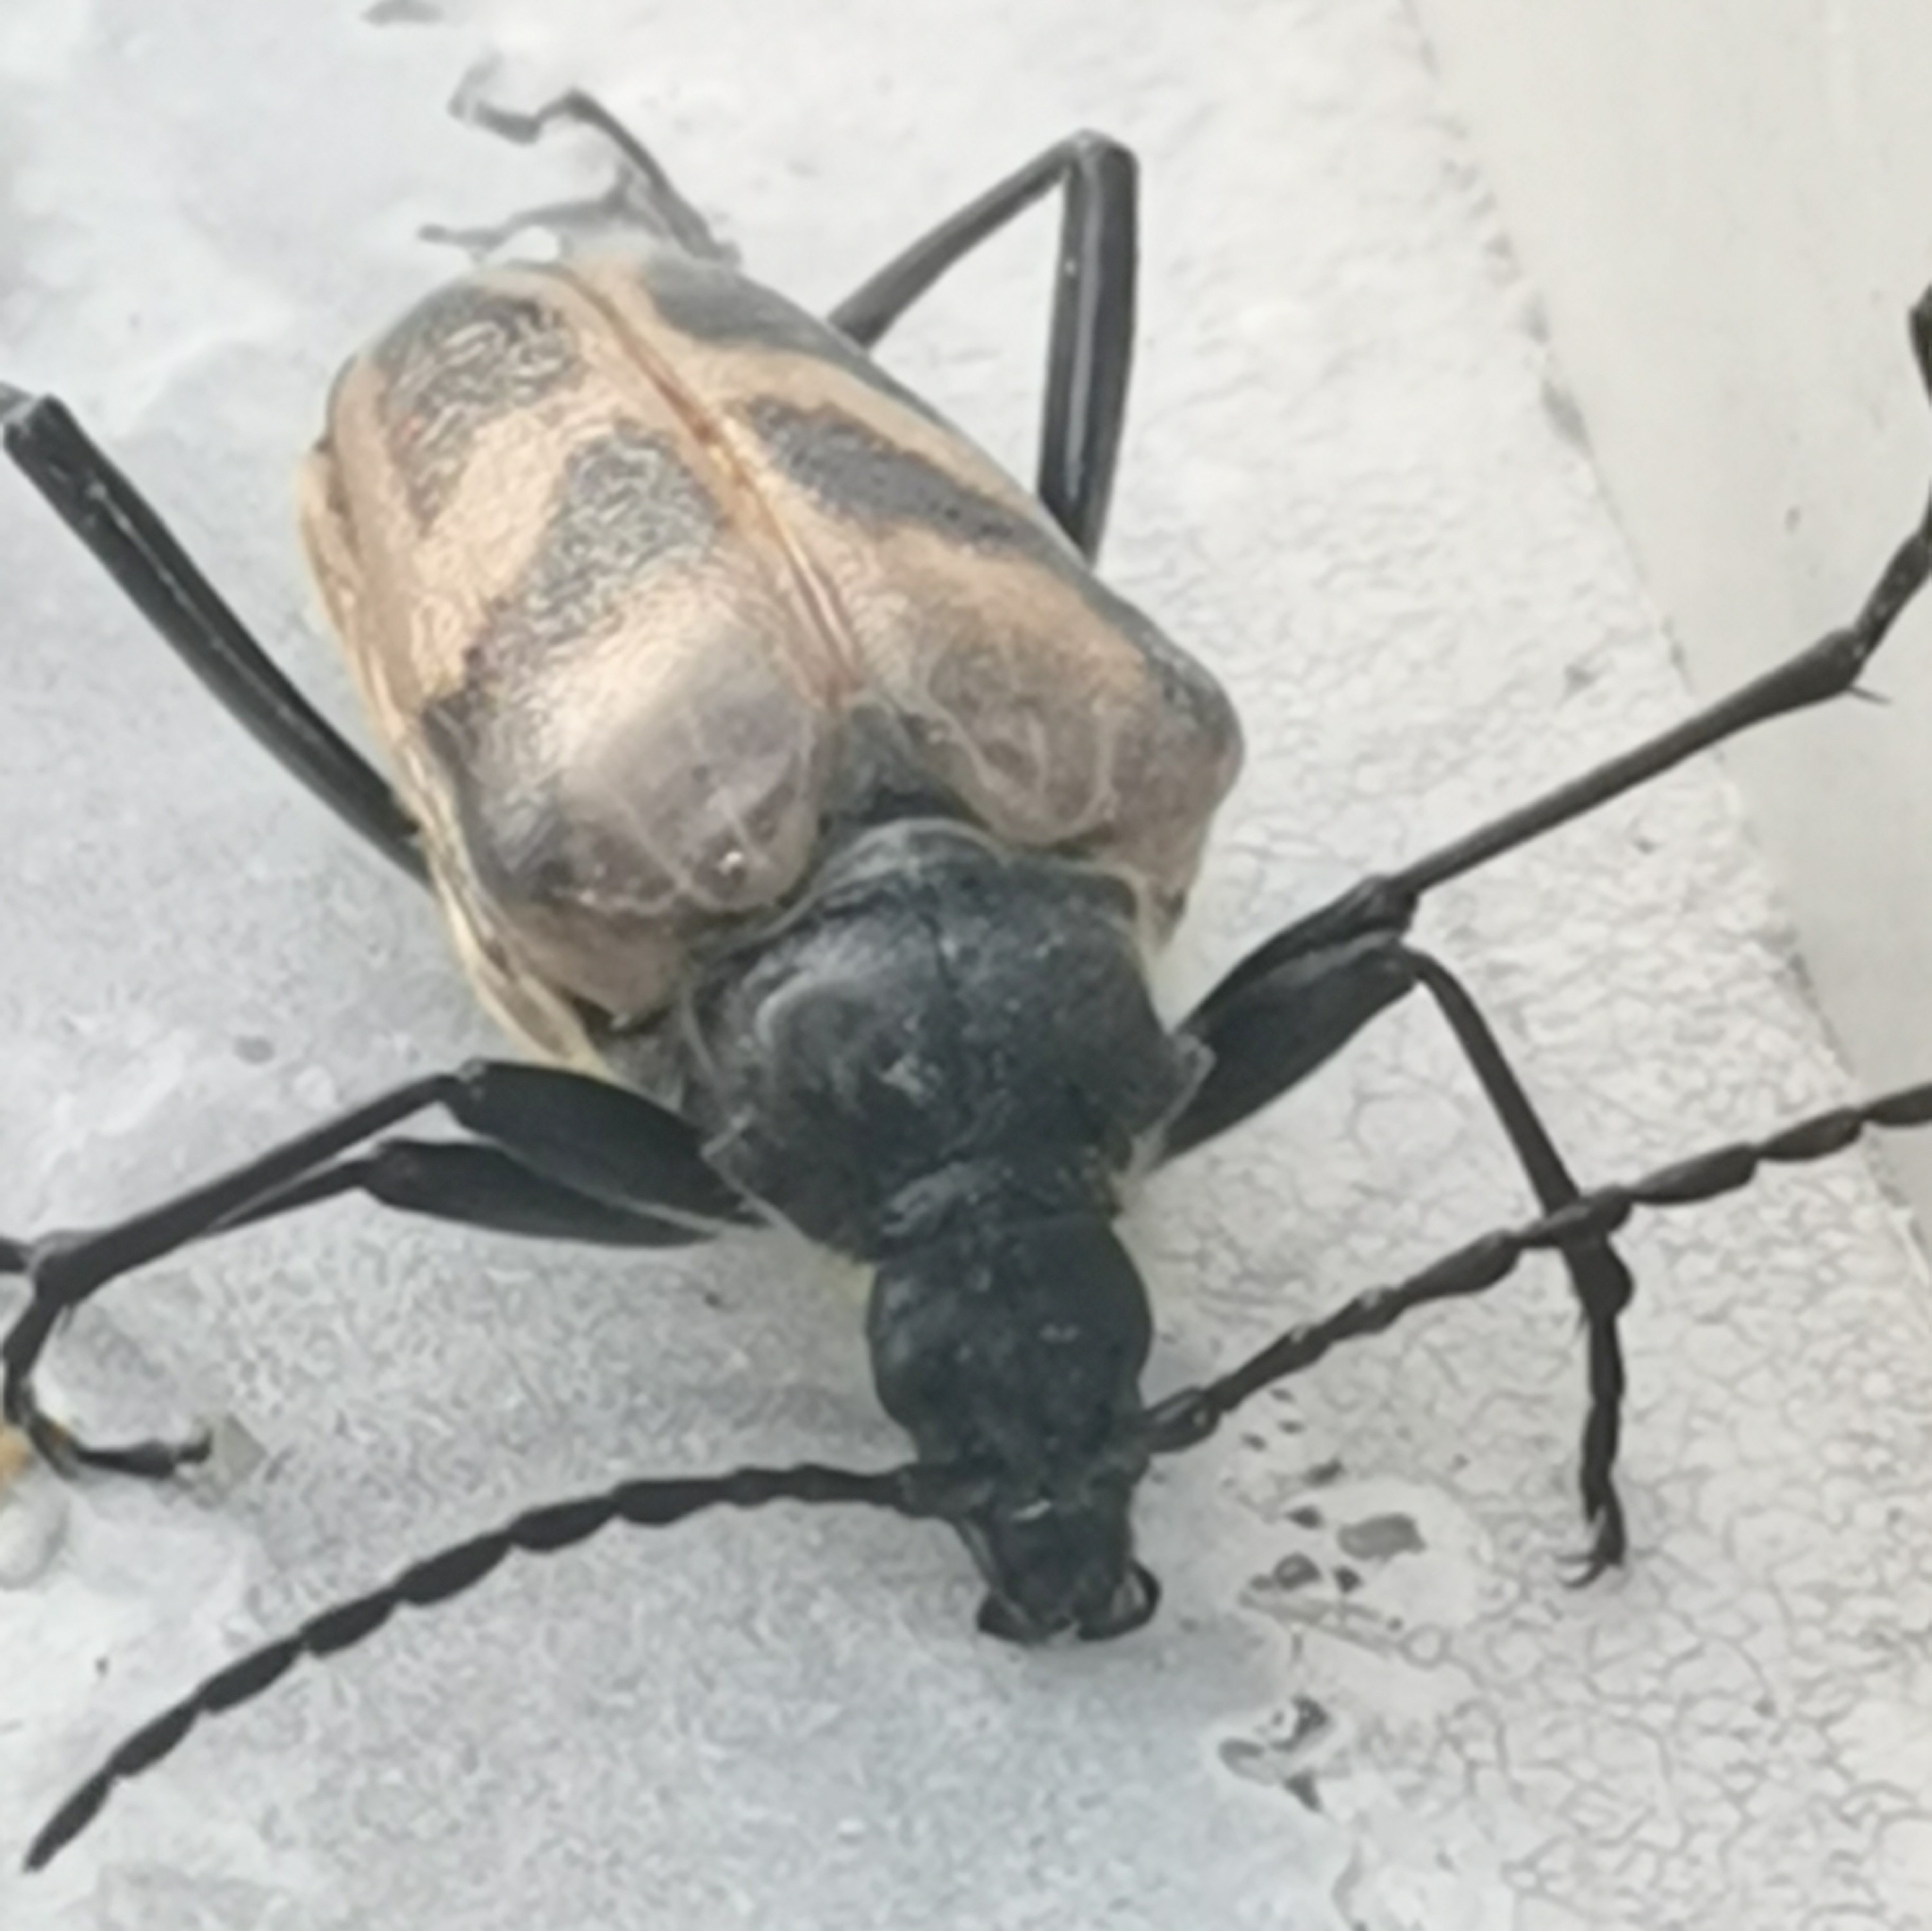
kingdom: Animalia
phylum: Arthropoda
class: Insecta
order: Coleoptera
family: Cerambycidae
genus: Pachyta
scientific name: Pachyta lamed
